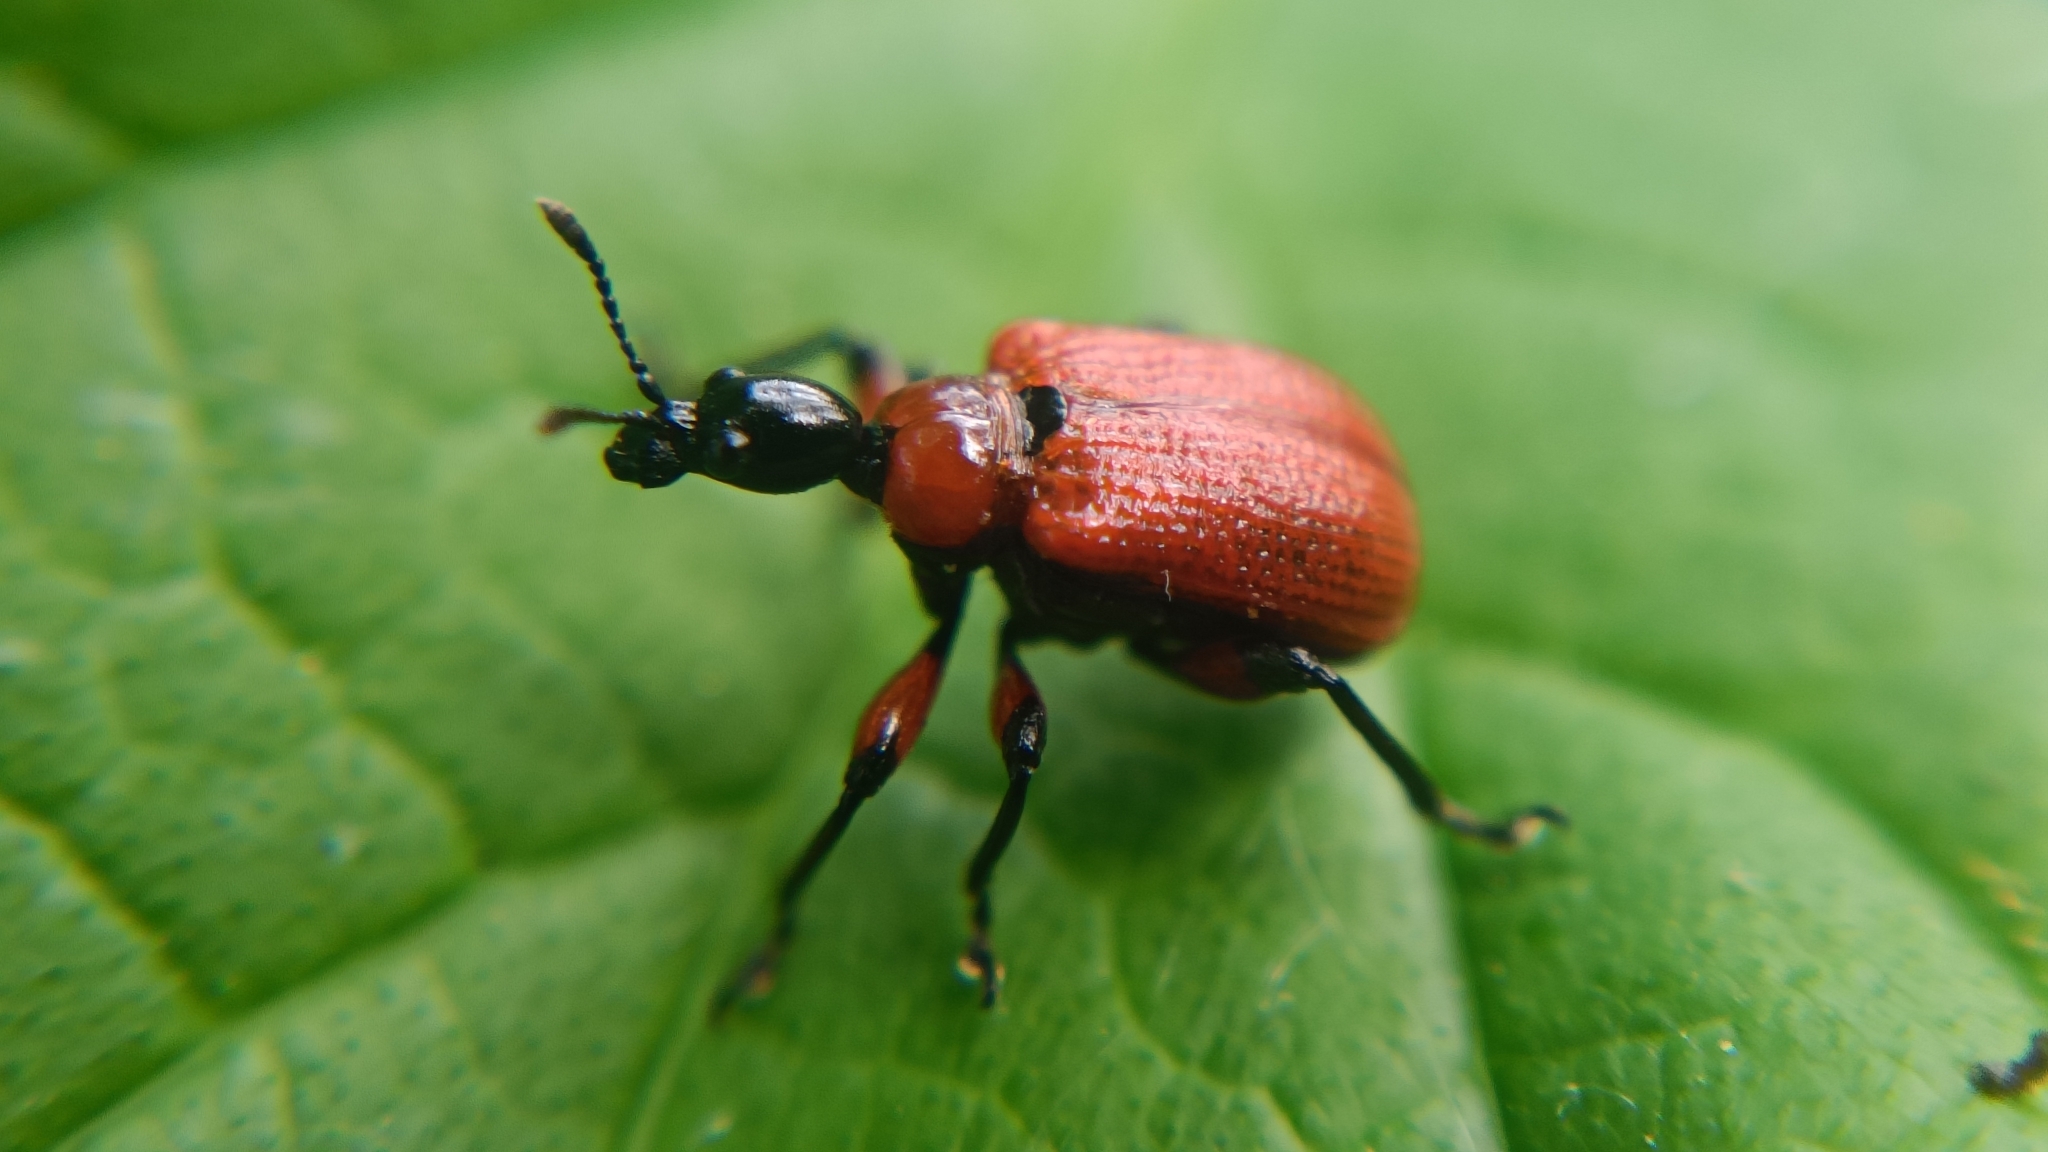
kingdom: Animalia
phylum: Arthropoda
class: Insecta
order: Coleoptera
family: Attelabidae
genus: Apoderus
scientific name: Apoderus coryli
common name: Hazel leaf roller
